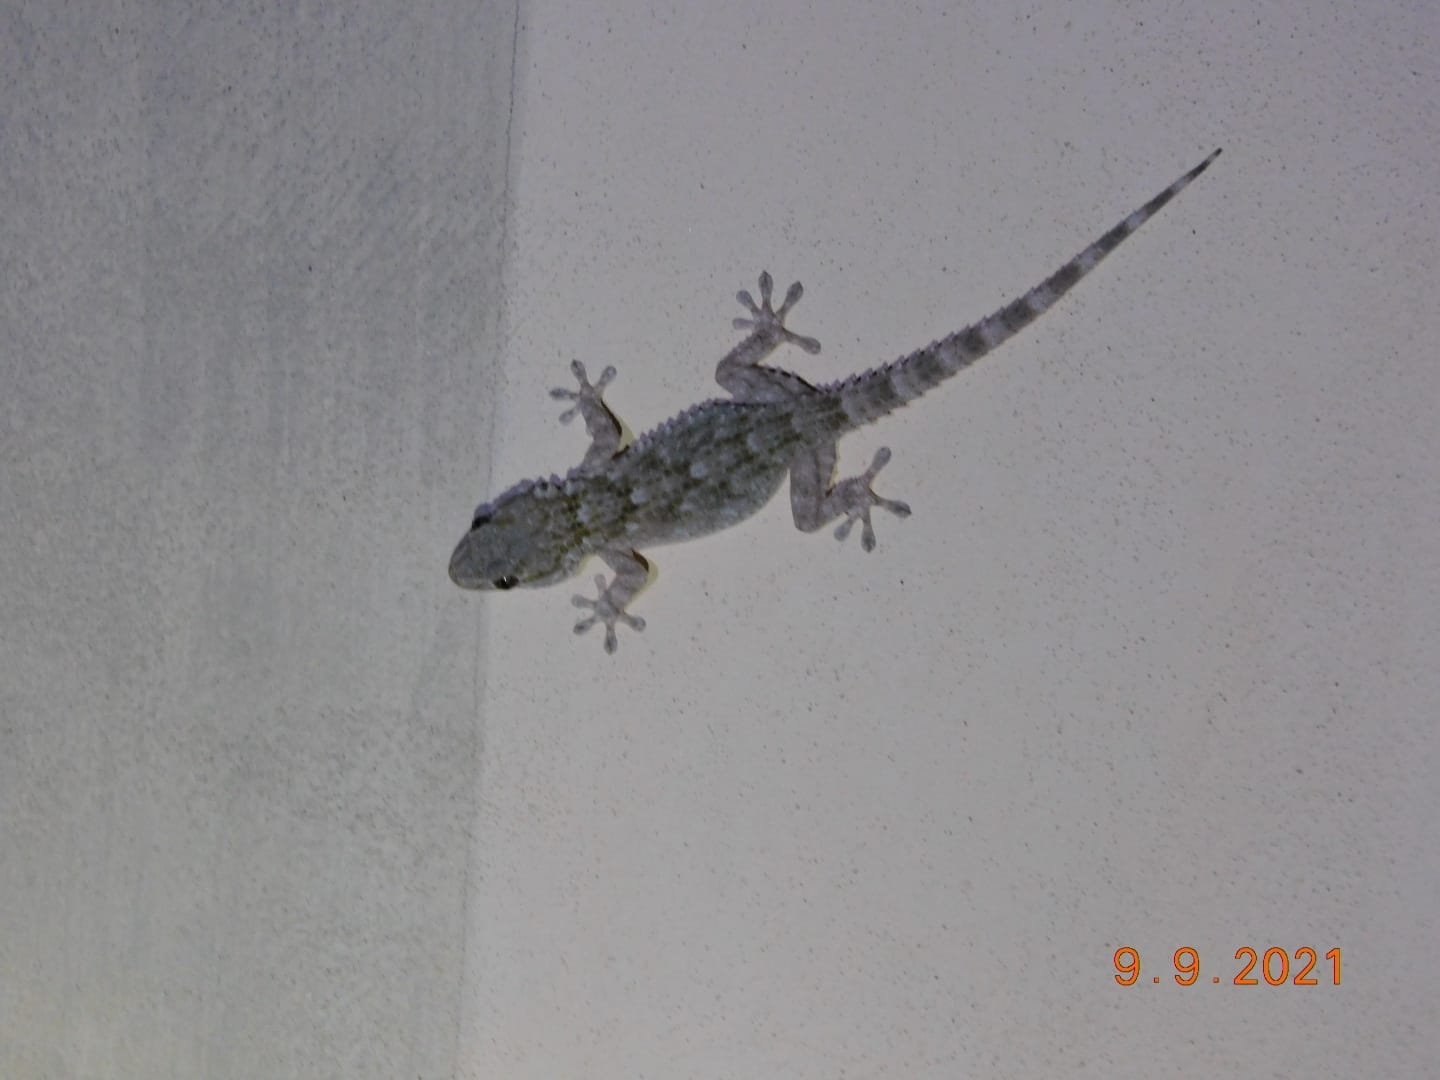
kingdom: Animalia
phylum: Chordata
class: Squamata
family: Phyllodactylidae
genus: Tarentola
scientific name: Tarentola mauritanica
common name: Moorish gecko
